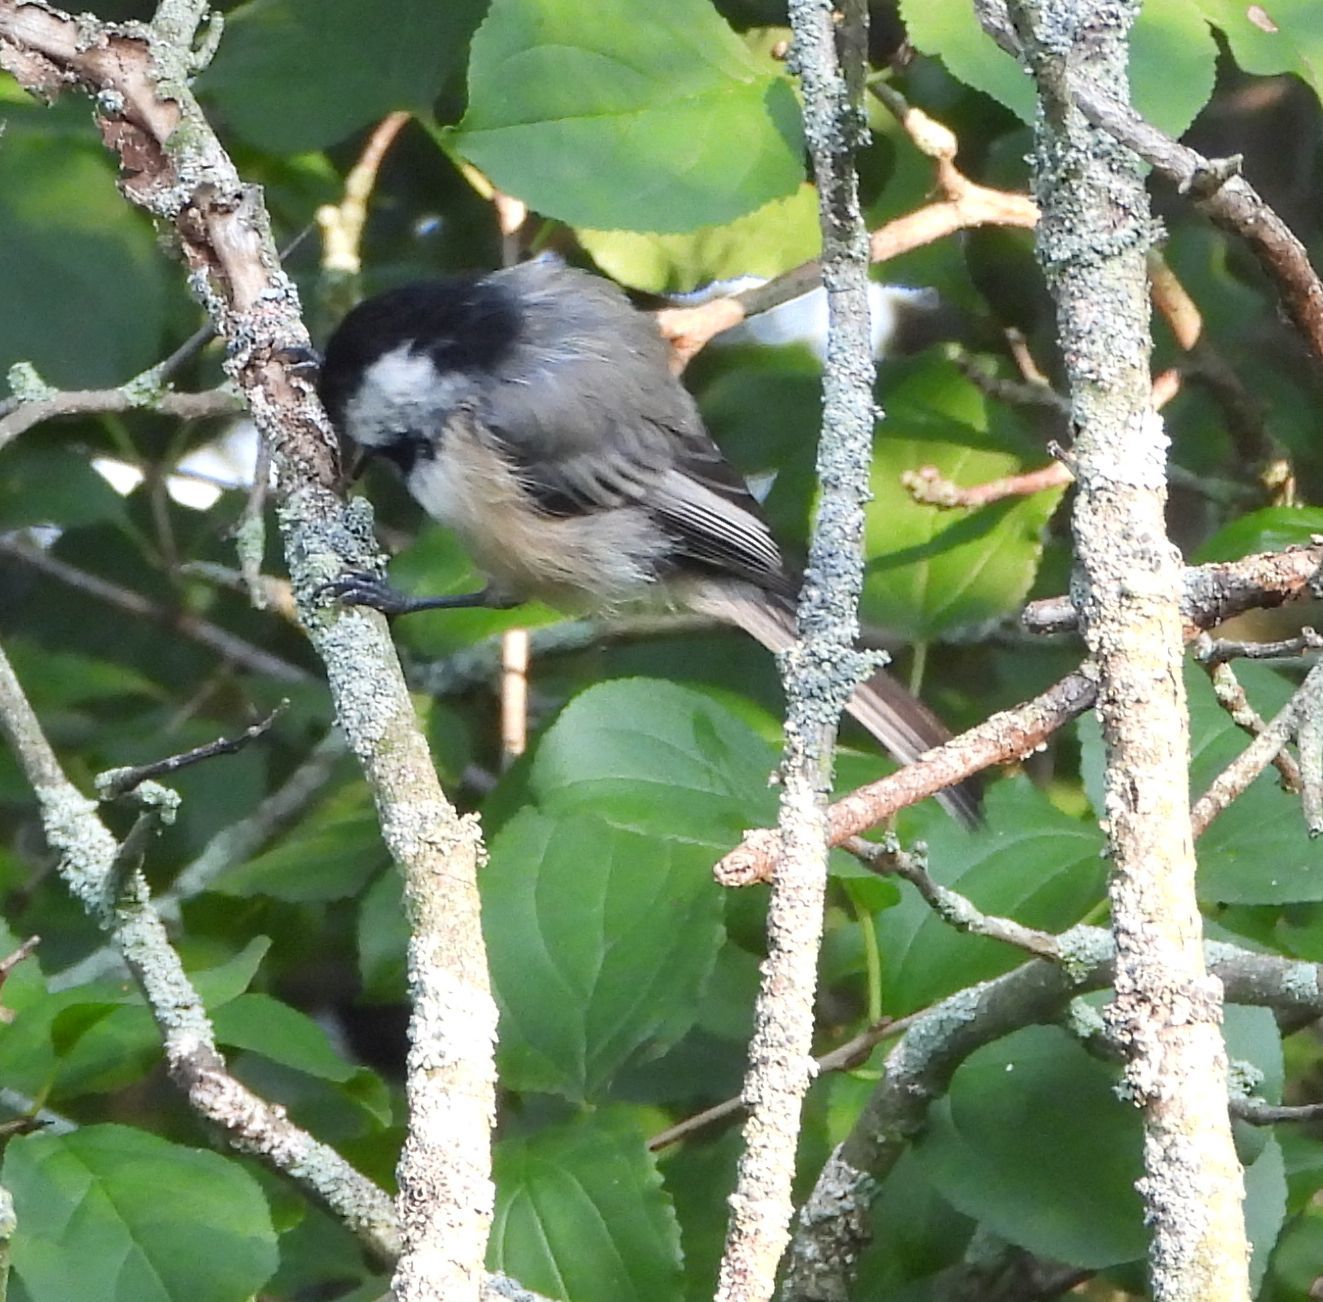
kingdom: Animalia
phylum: Chordata
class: Aves
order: Passeriformes
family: Paridae
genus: Poecile
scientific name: Poecile atricapillus
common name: Black-capped chickadee
